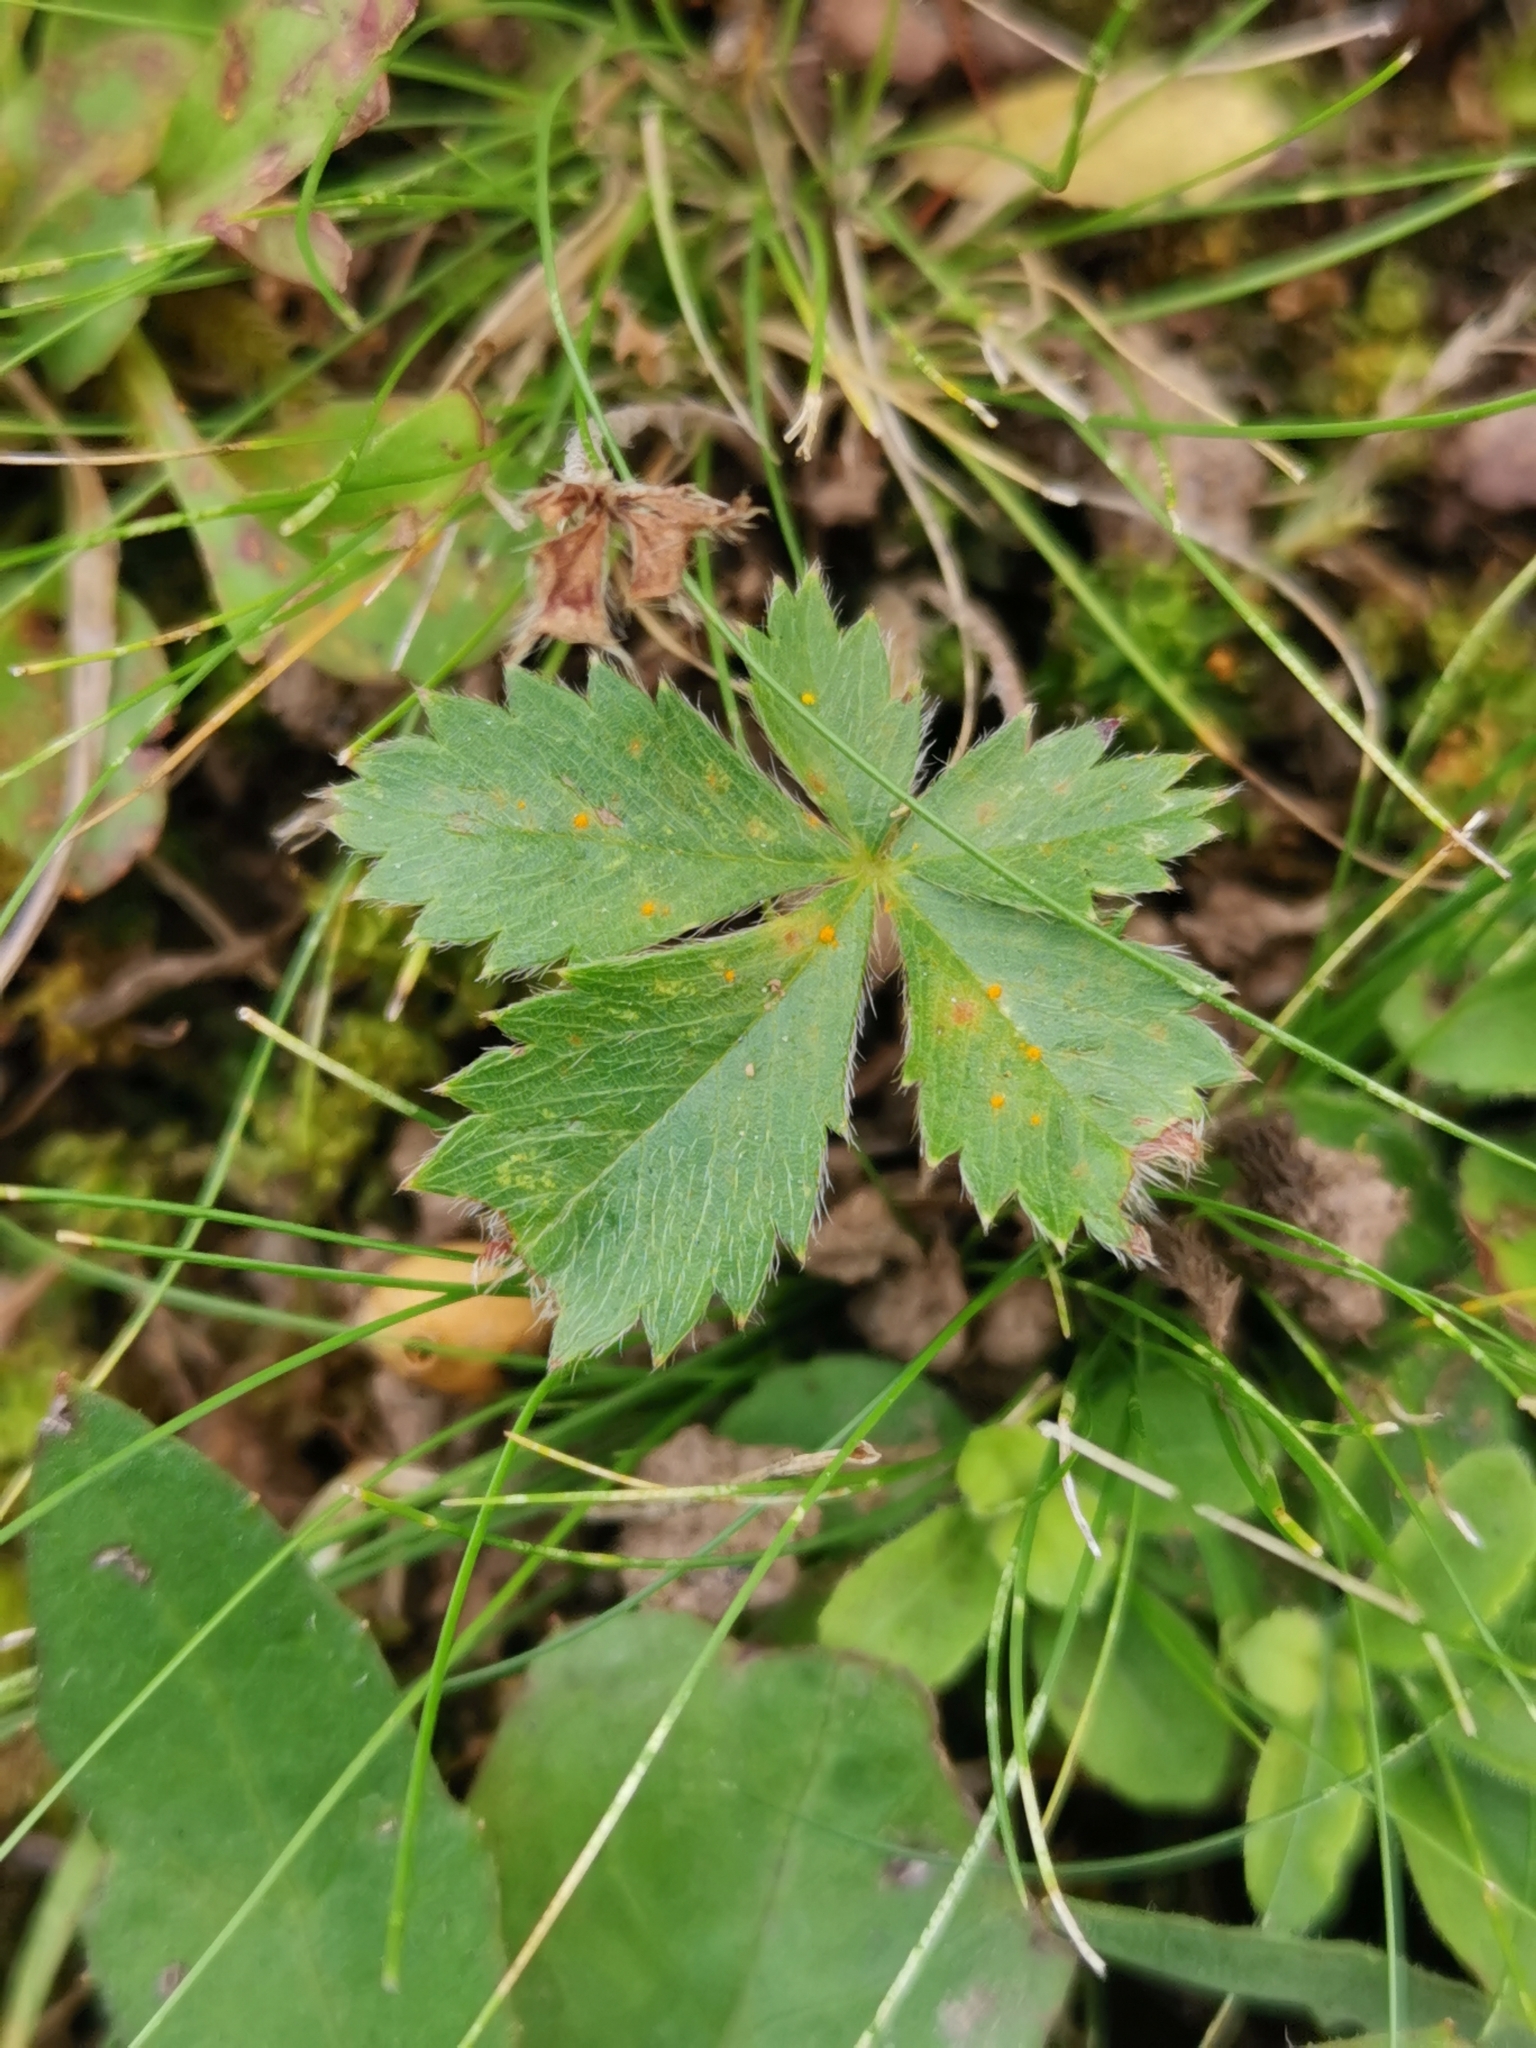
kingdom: Plantae
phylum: Tracheophyta
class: Magnoliopsida
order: Rosales
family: Rosaceae
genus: Potentilla
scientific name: Potentilla canadensis
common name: Canada cinquefoil
